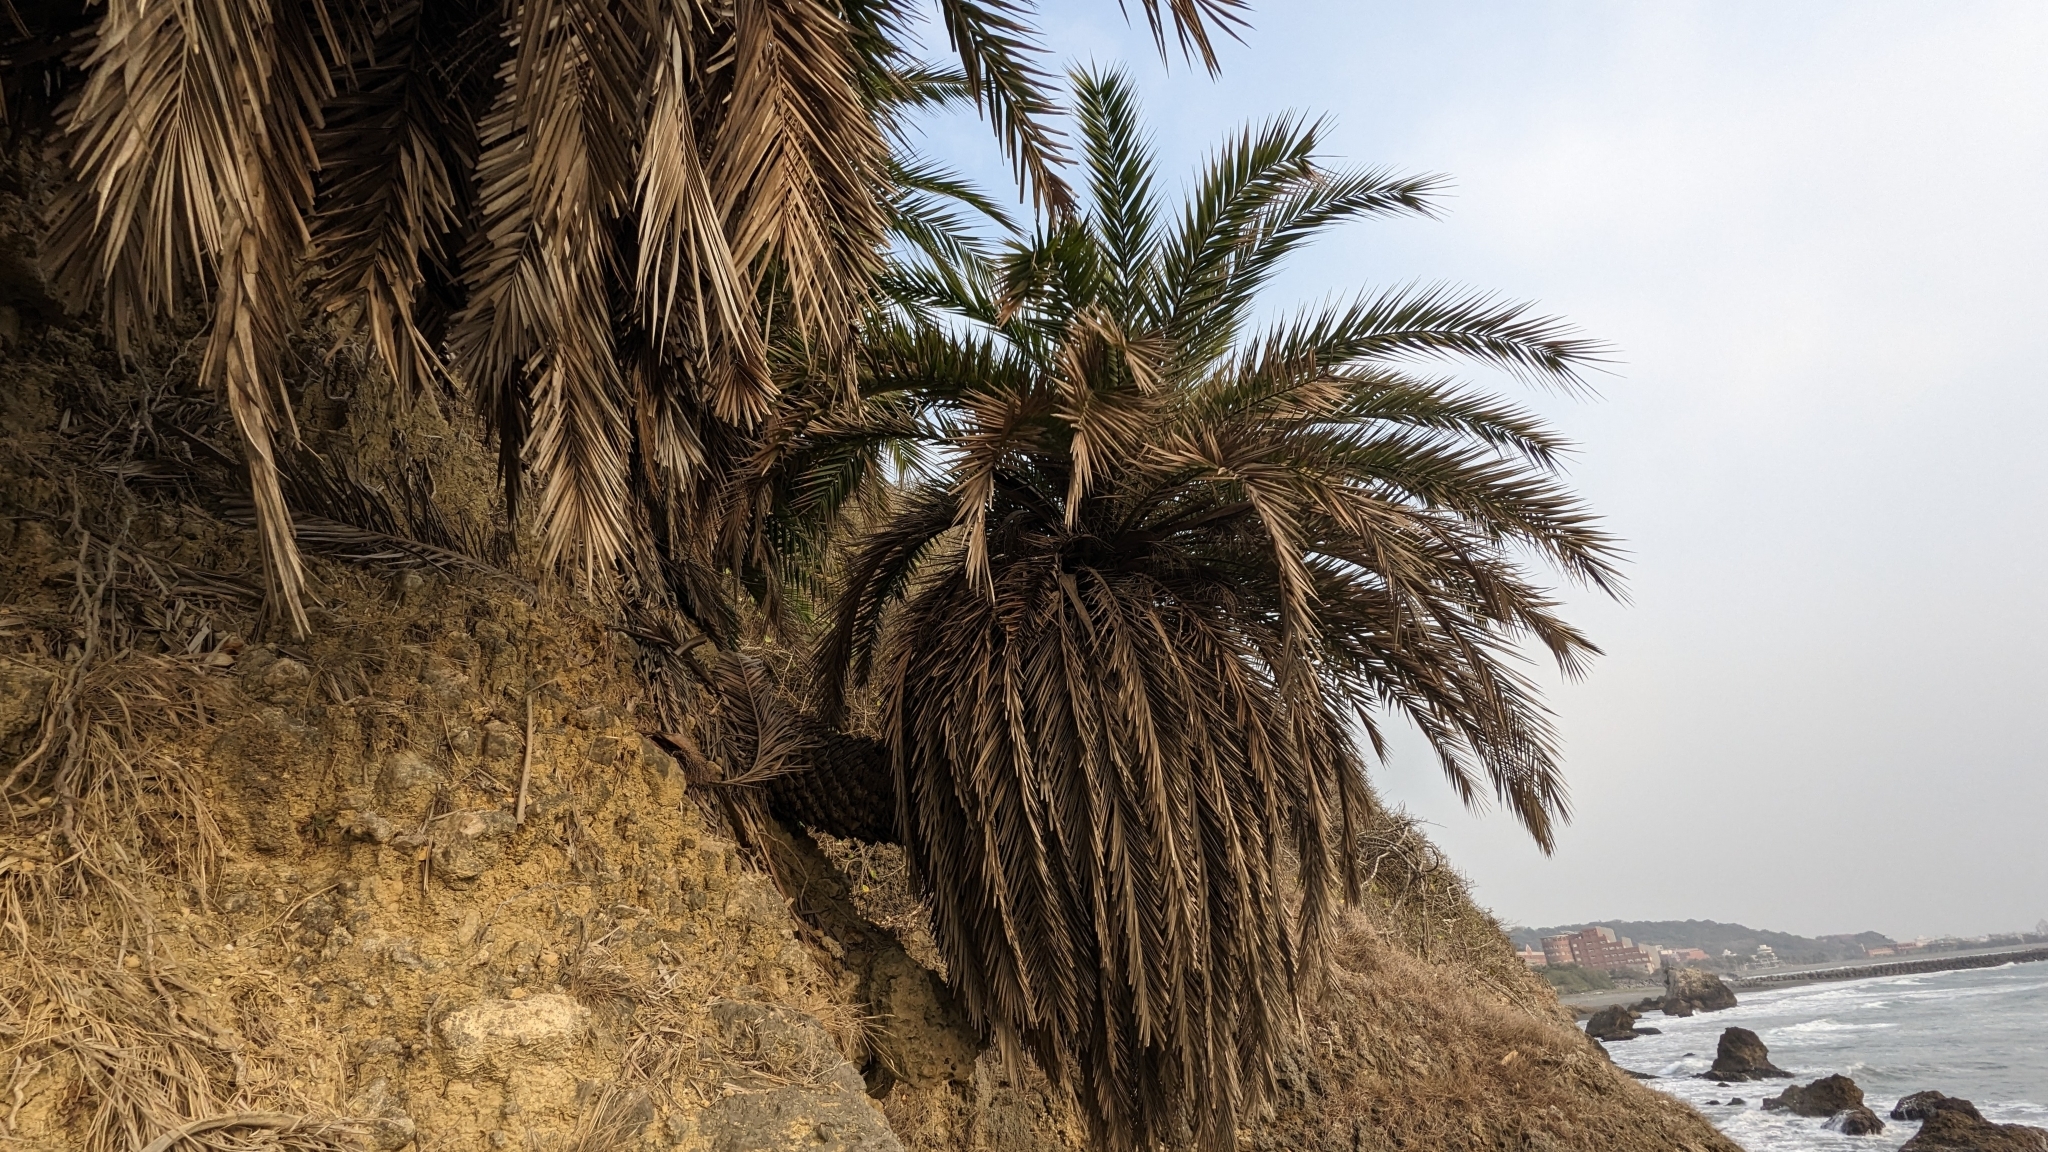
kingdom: Plantae
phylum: Tracheophyta
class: Liliopsida
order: Arecales
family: Arecaceae
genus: Phoenix
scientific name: Phoenix loureiroi
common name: Loureiro's palm
